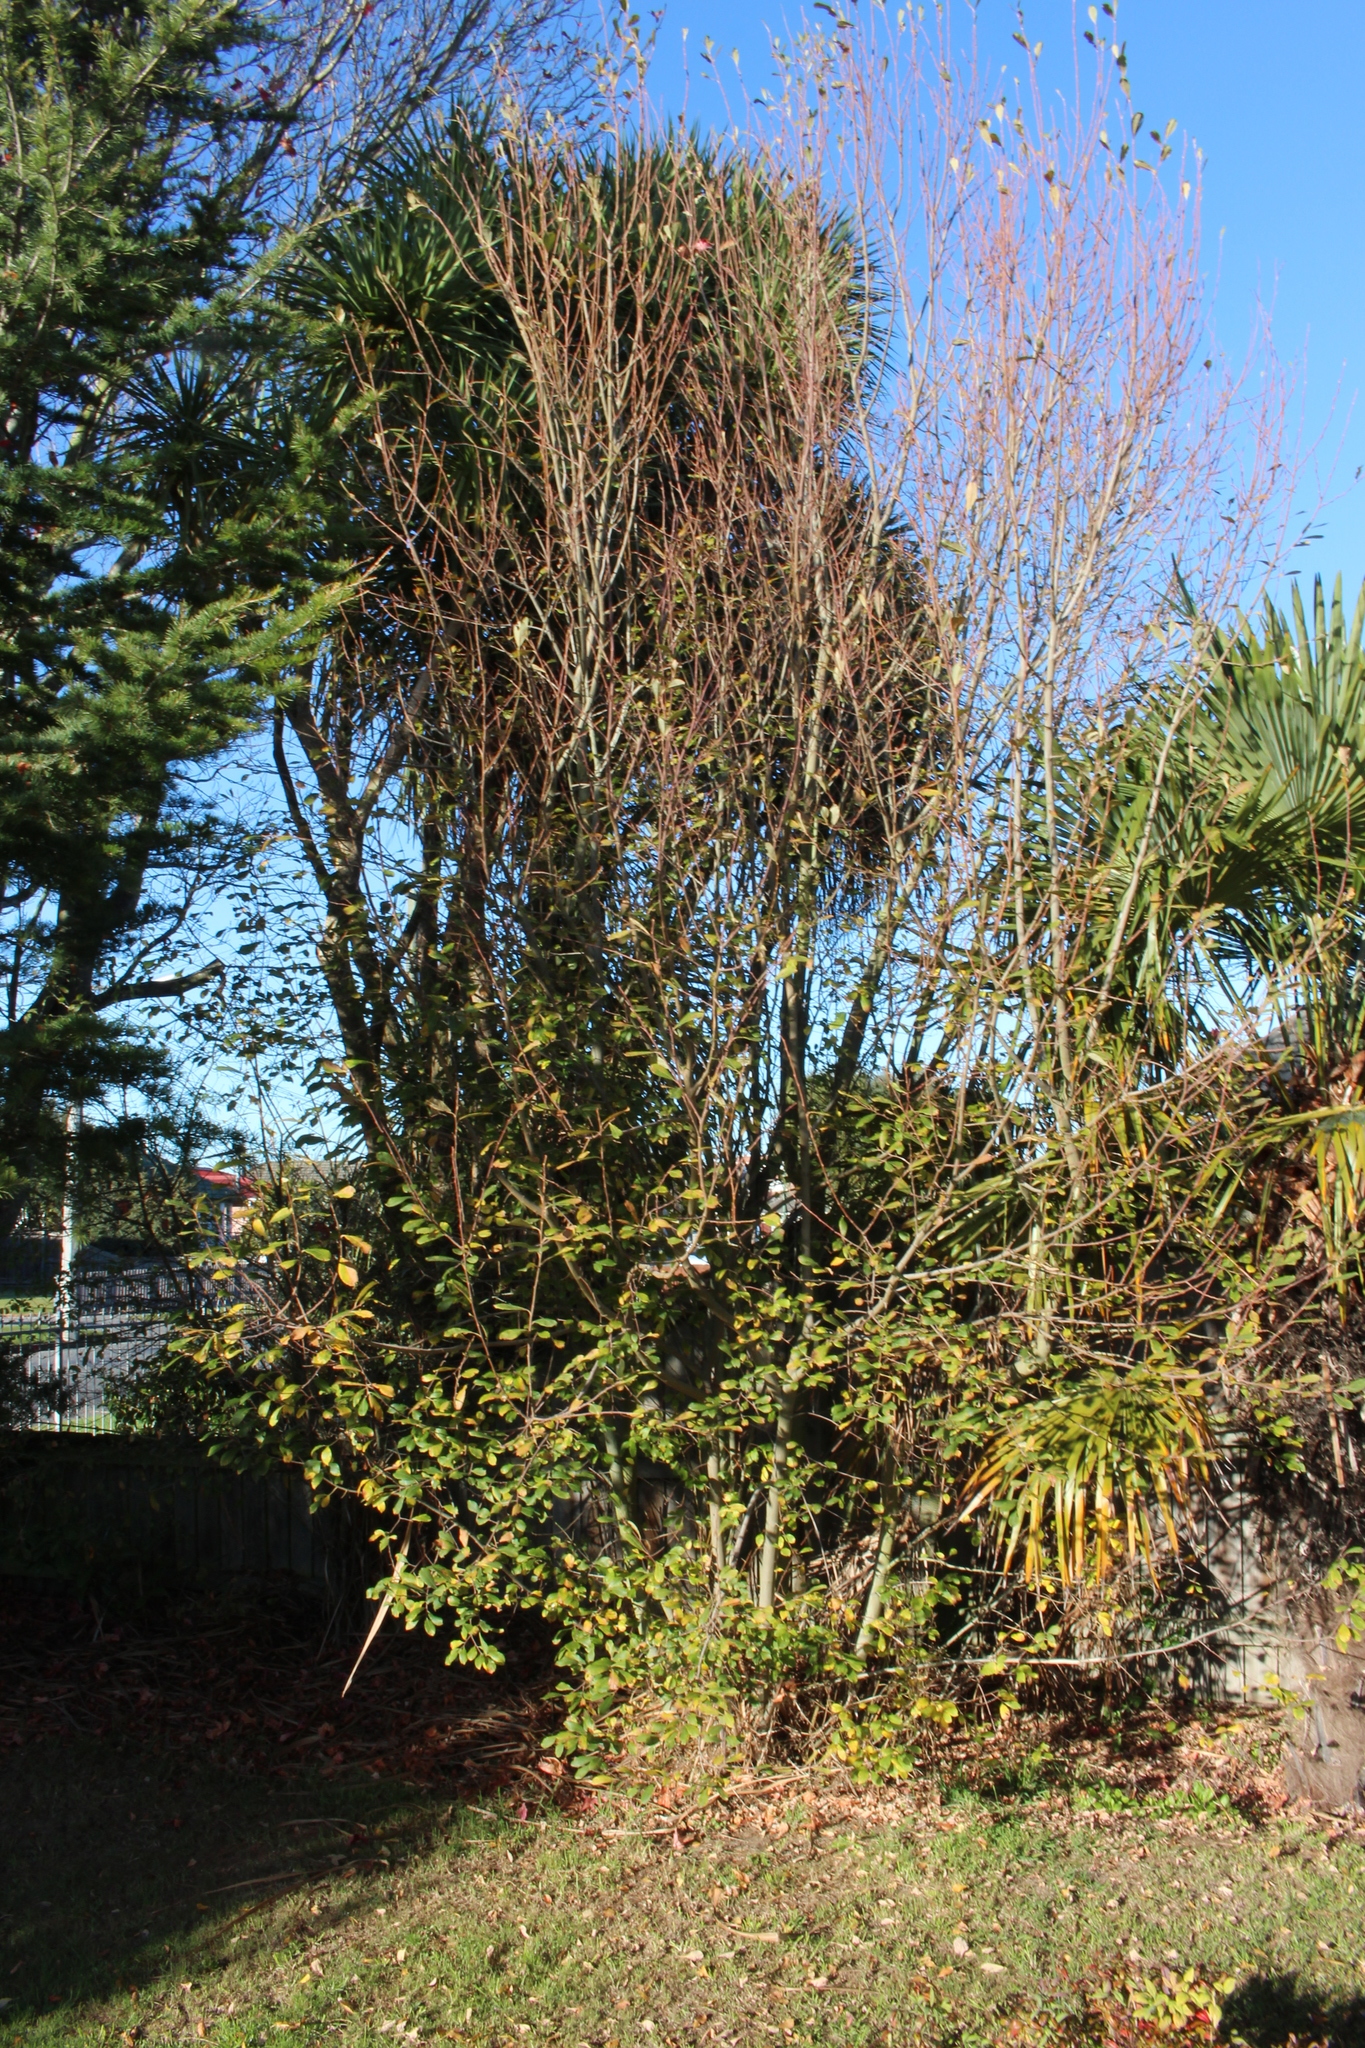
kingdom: Plantae
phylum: Tracheophyta
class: Magnoliopsida
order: Malpighiales
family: Salicaceae
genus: Salix
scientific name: Salix cinerea
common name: Common sallow
